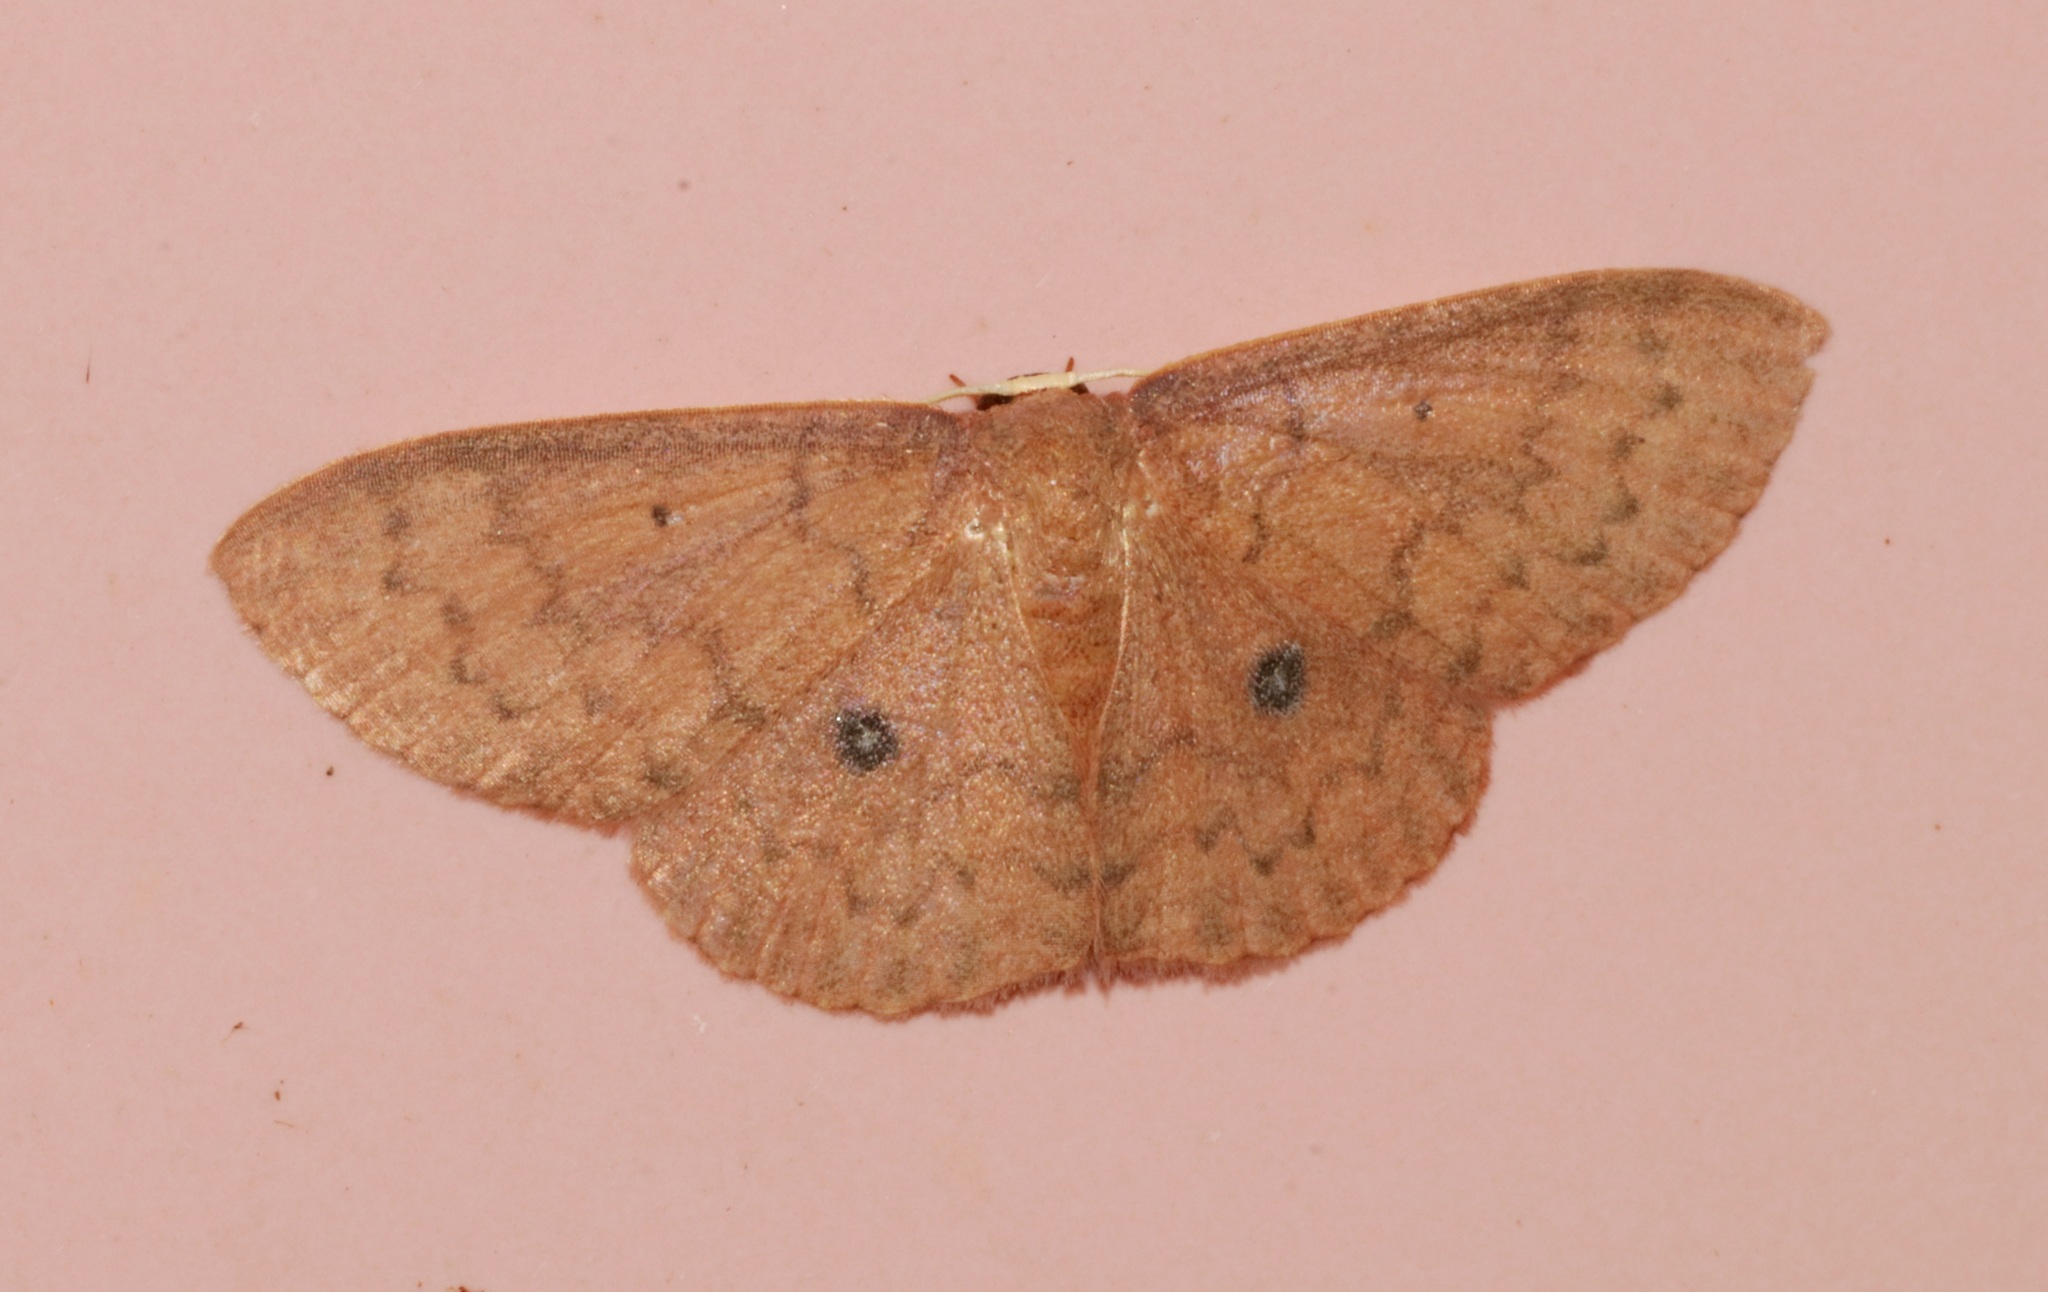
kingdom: Animalia
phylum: Arthropoda
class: Insecta
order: Lepidoptera
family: Geometridae
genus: Organopoda
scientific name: Organopoda carnearia
